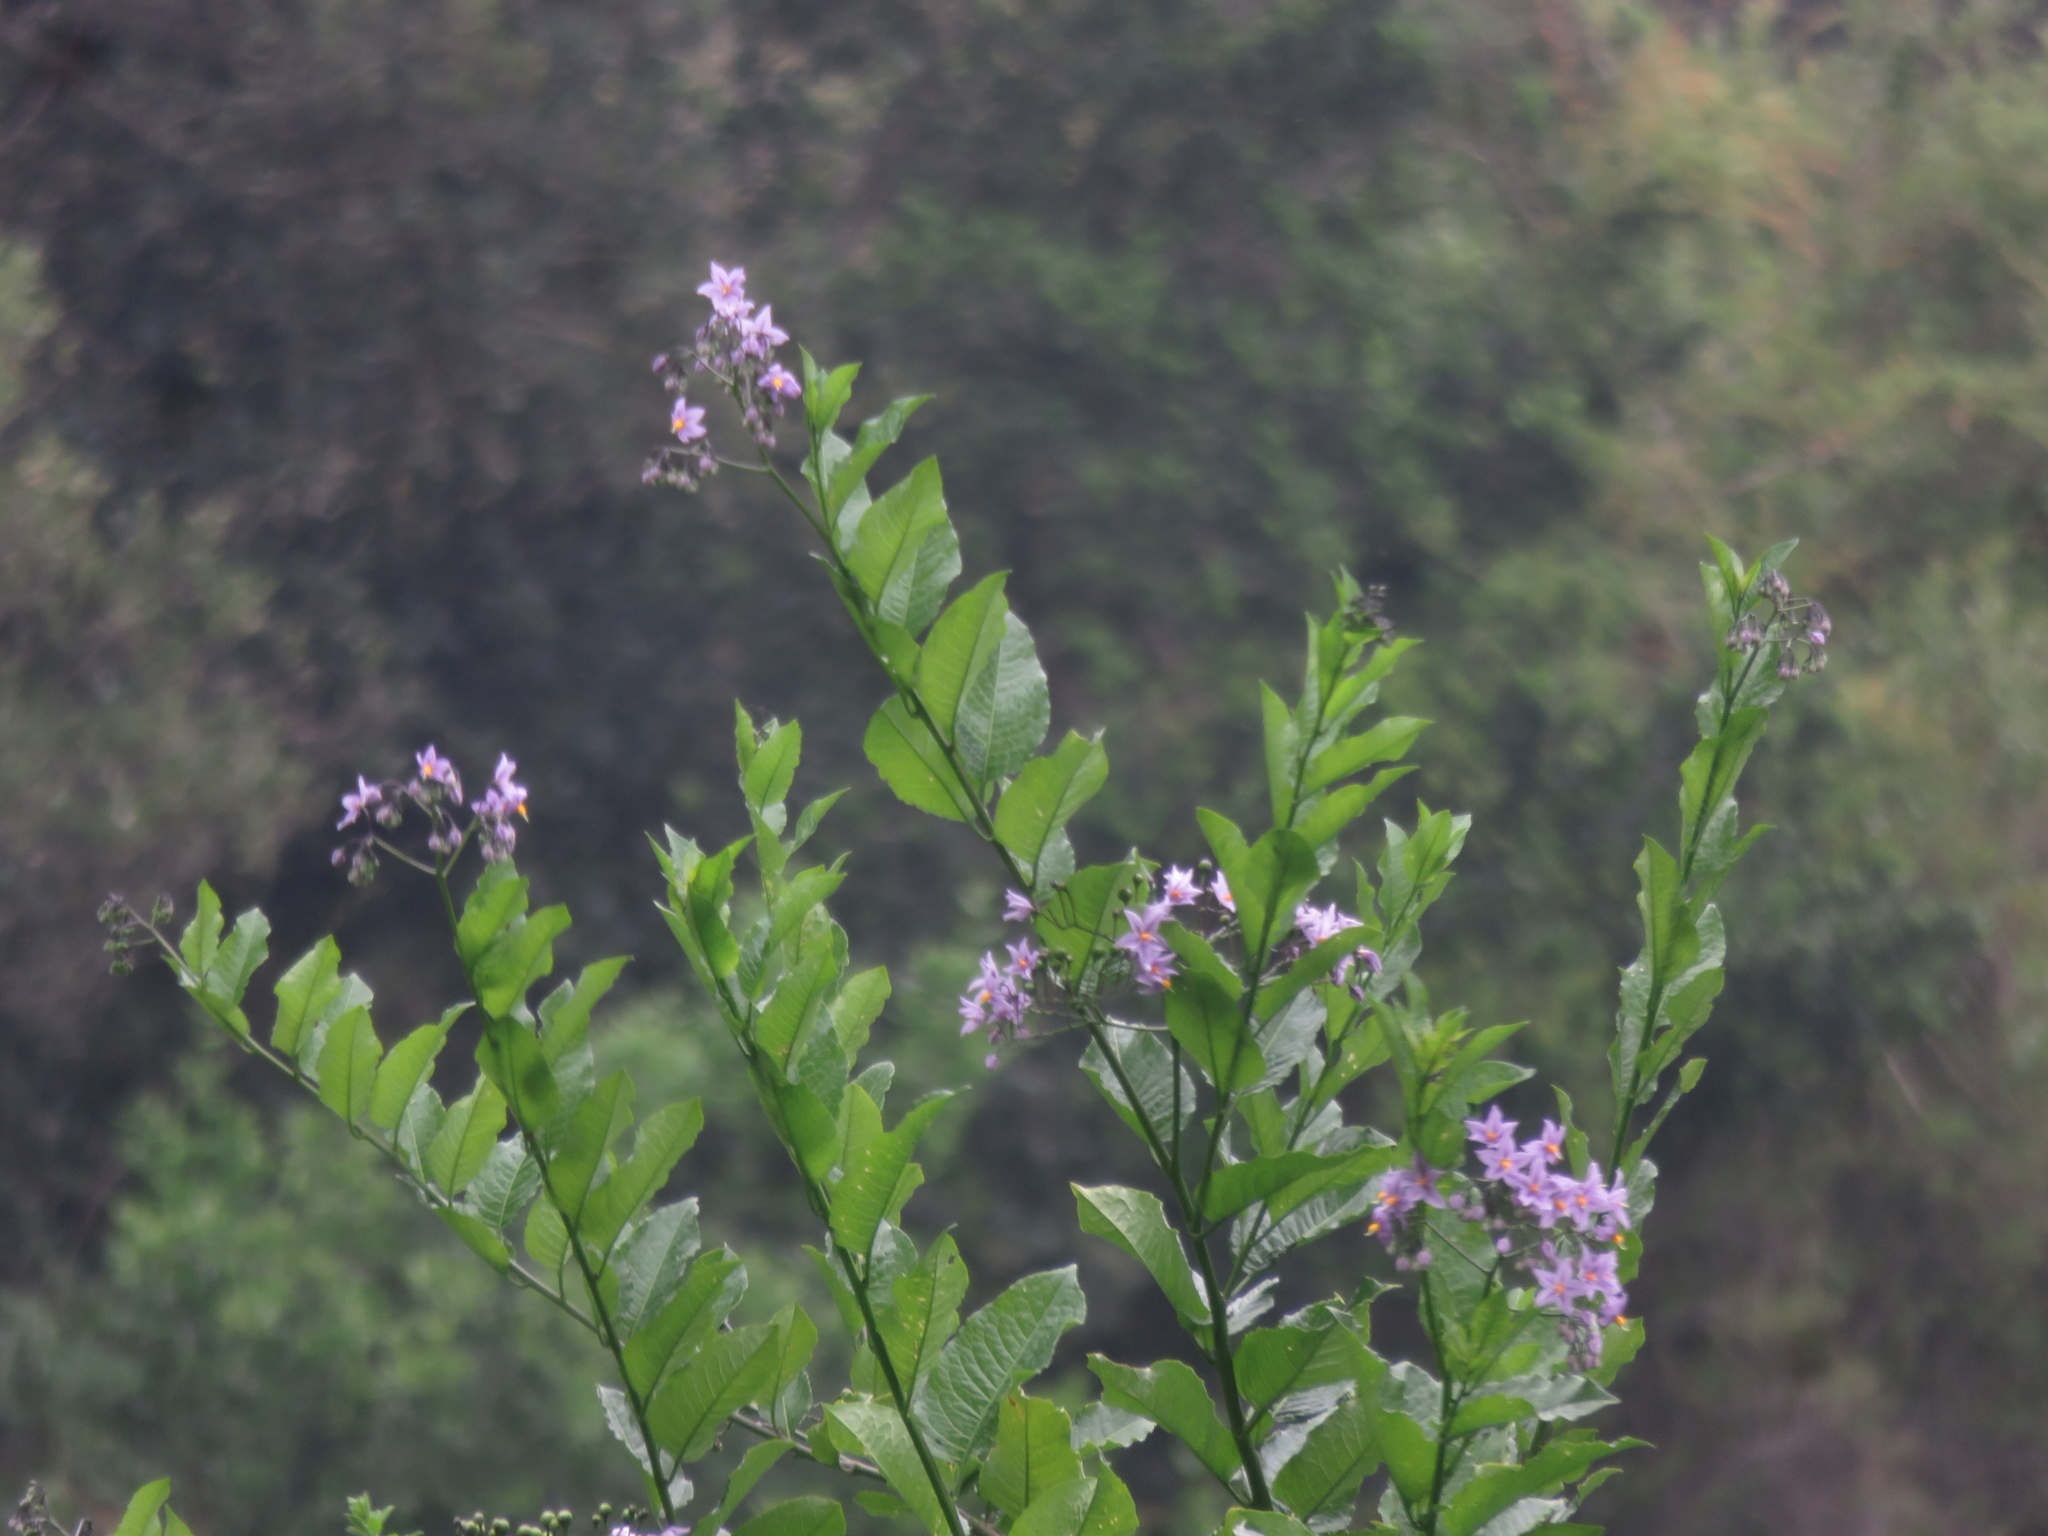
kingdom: Plantae
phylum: Tracheophyta
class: Magnoliopsida
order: Solanales
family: Solanaceae
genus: Solanum
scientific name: Solanum crispum
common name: Chilean nightshade
